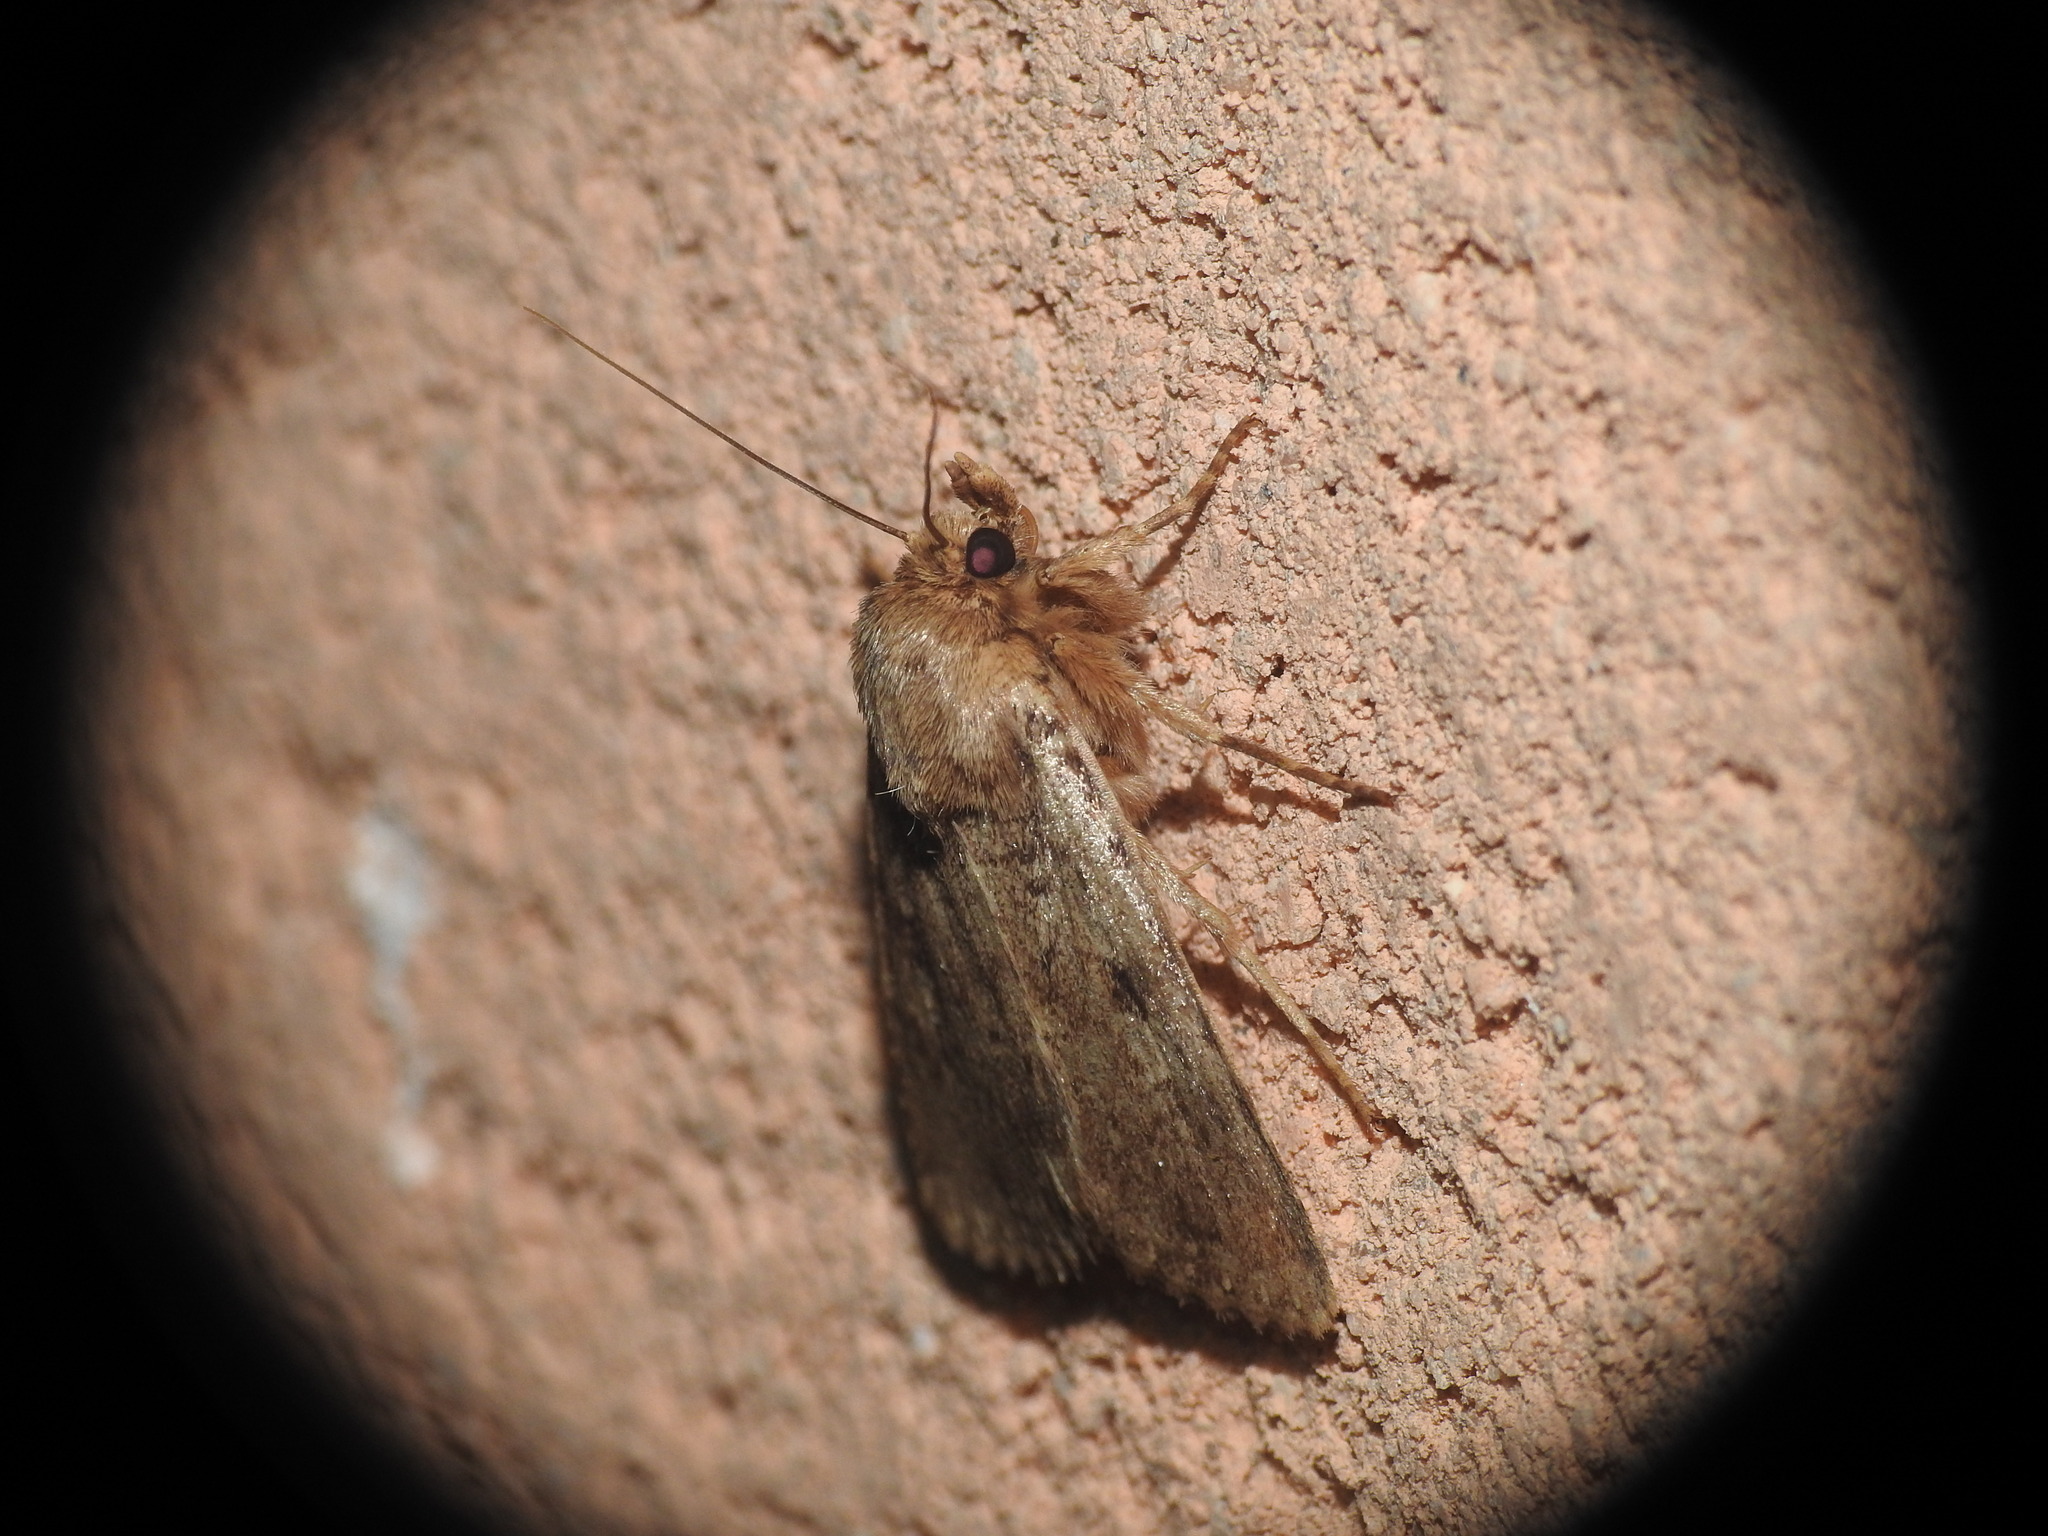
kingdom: Animalia
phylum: Arthropoda
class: Insecta
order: Lepidoptera
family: Noctuidae
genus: Amphipyra
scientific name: Amphipyra effusa
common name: Landguard ochre
